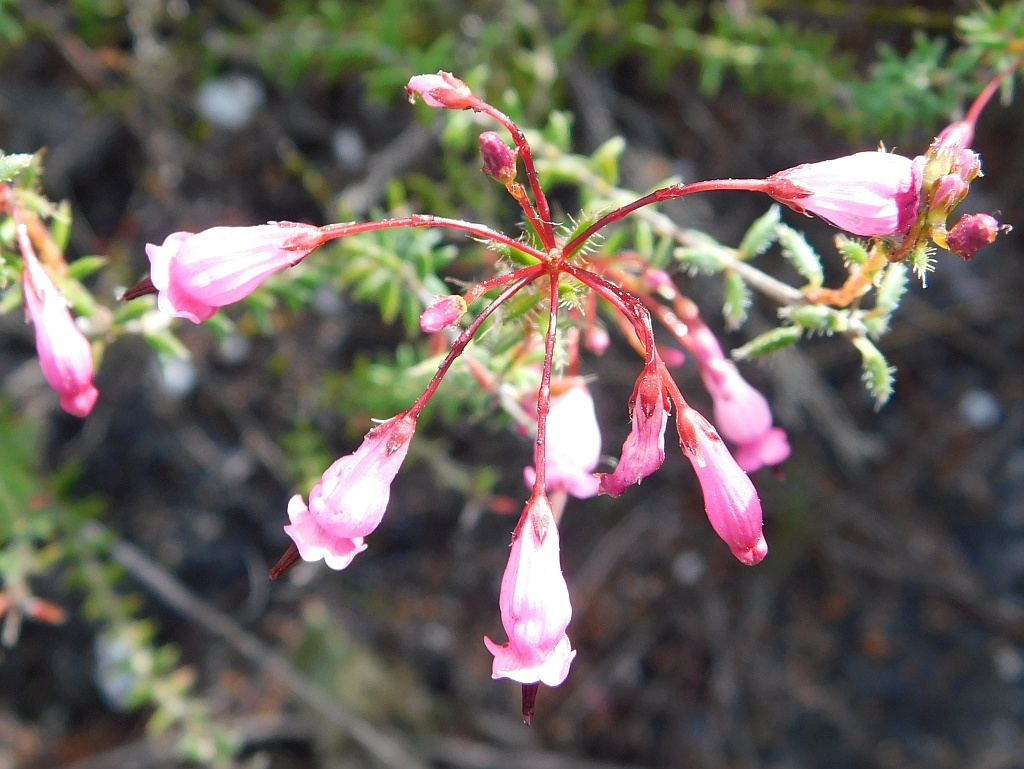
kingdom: Plantae
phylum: Tracheophyta
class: Magnoliopsida
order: Ericales
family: Ericaceae
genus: Erica
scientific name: Erica embothriifolia
